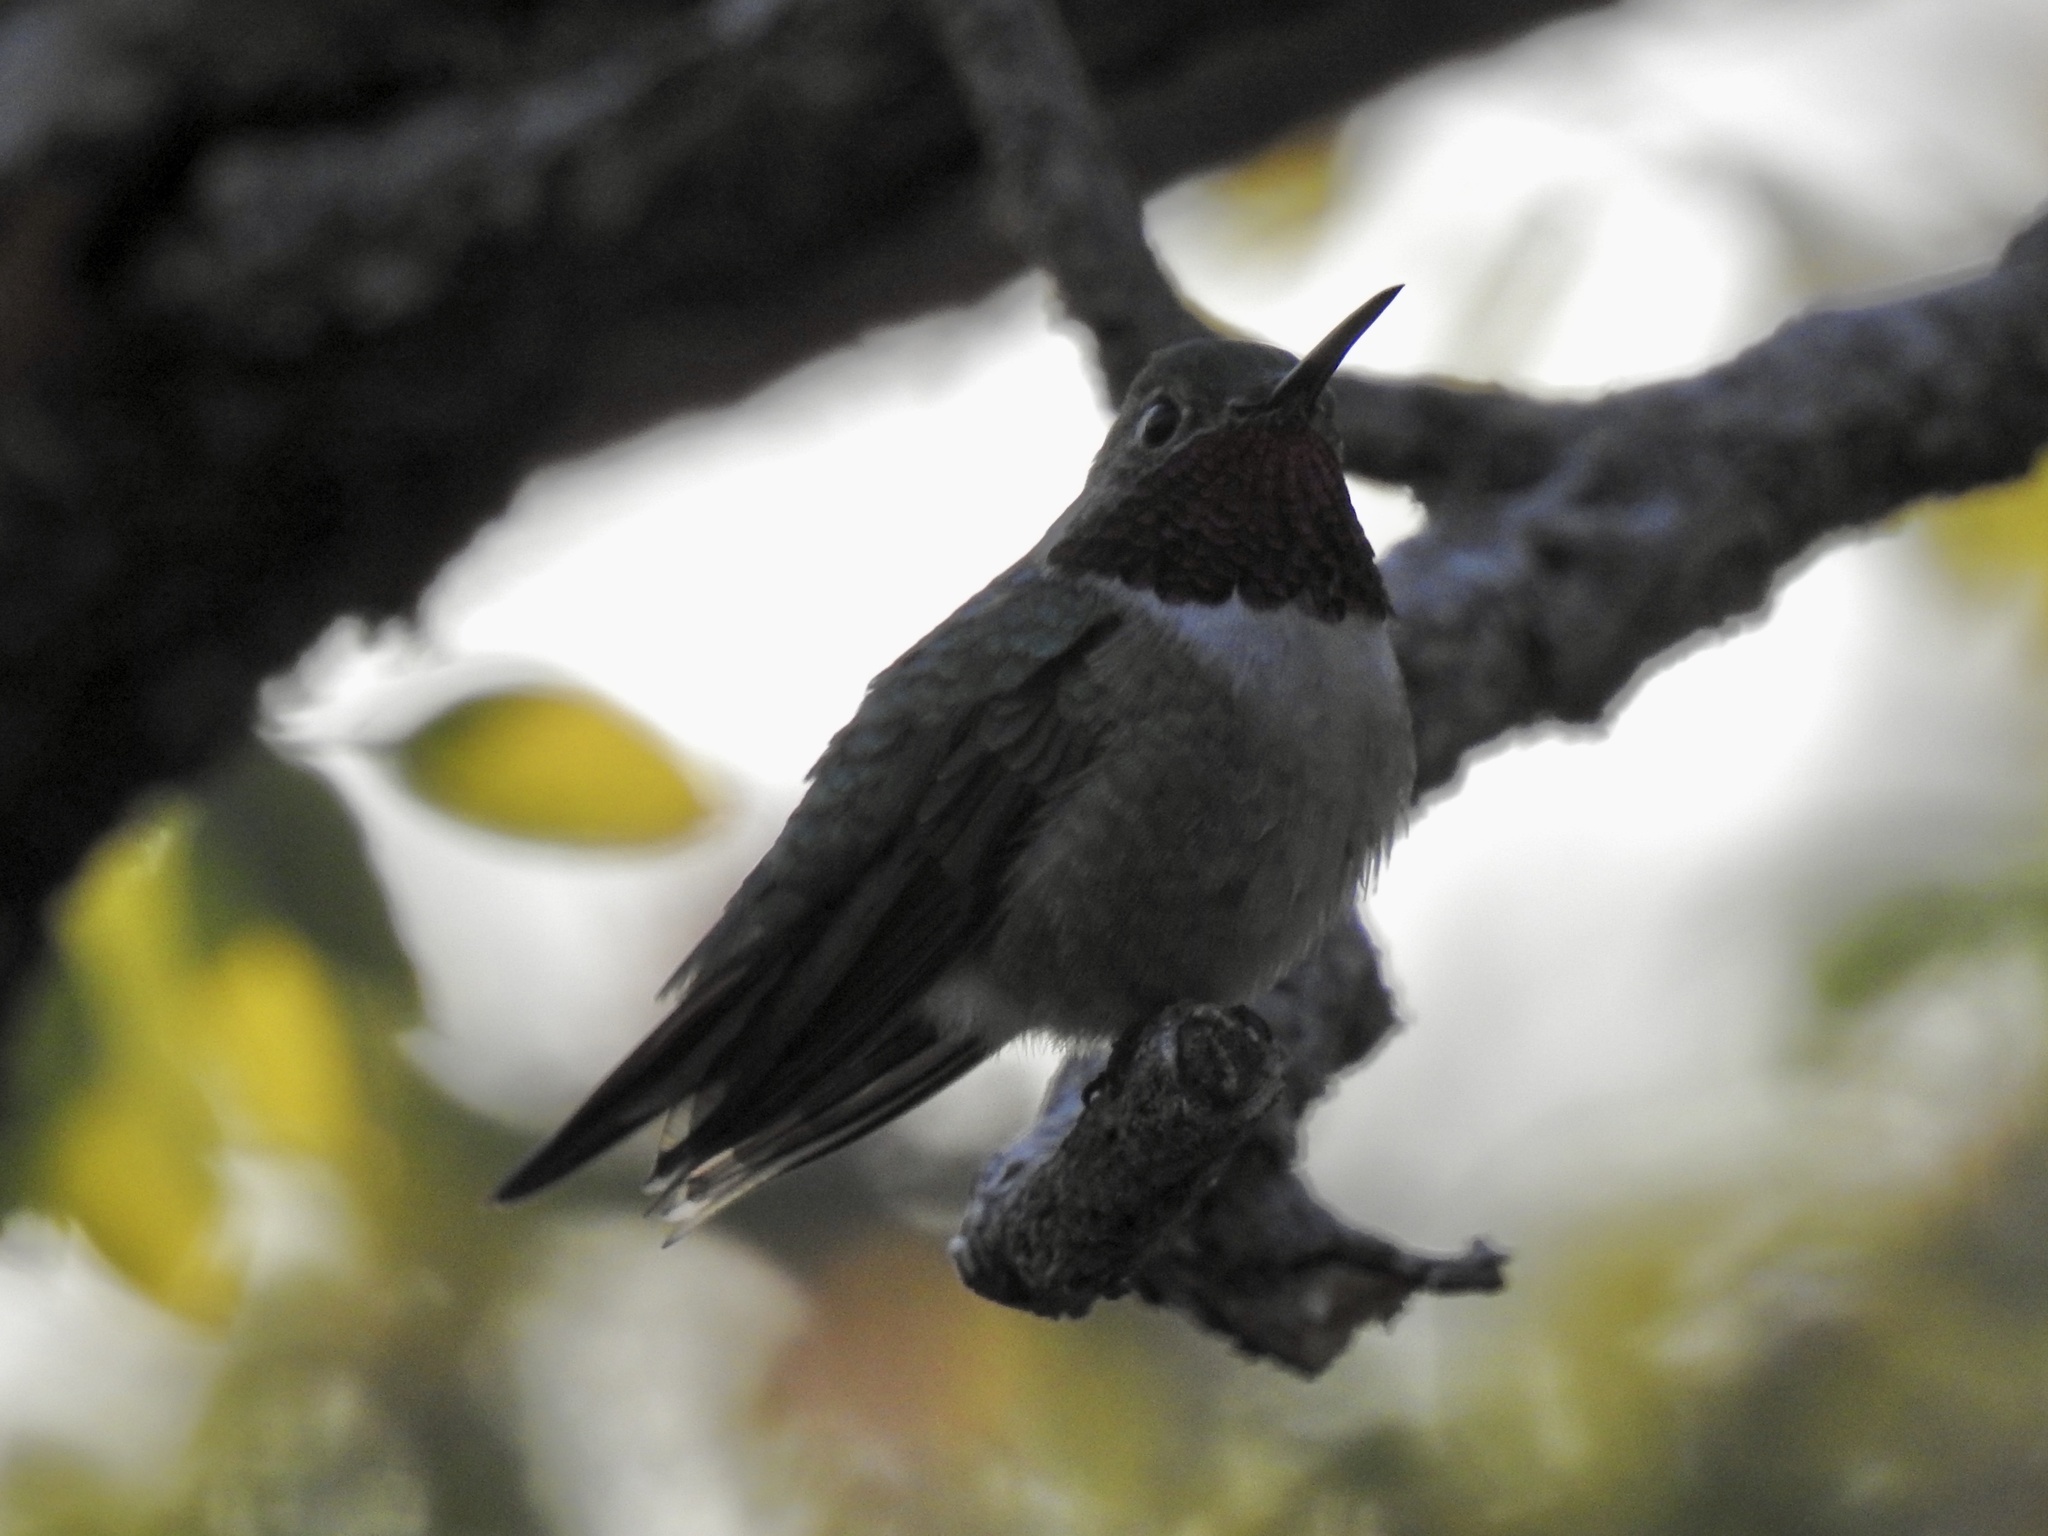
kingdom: Animalia
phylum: Chordata
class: Aves
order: Apodiformes
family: Trochilidae
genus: Selasphorus
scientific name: Selasphorus platycercus
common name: Broad-tailed hummingbird
